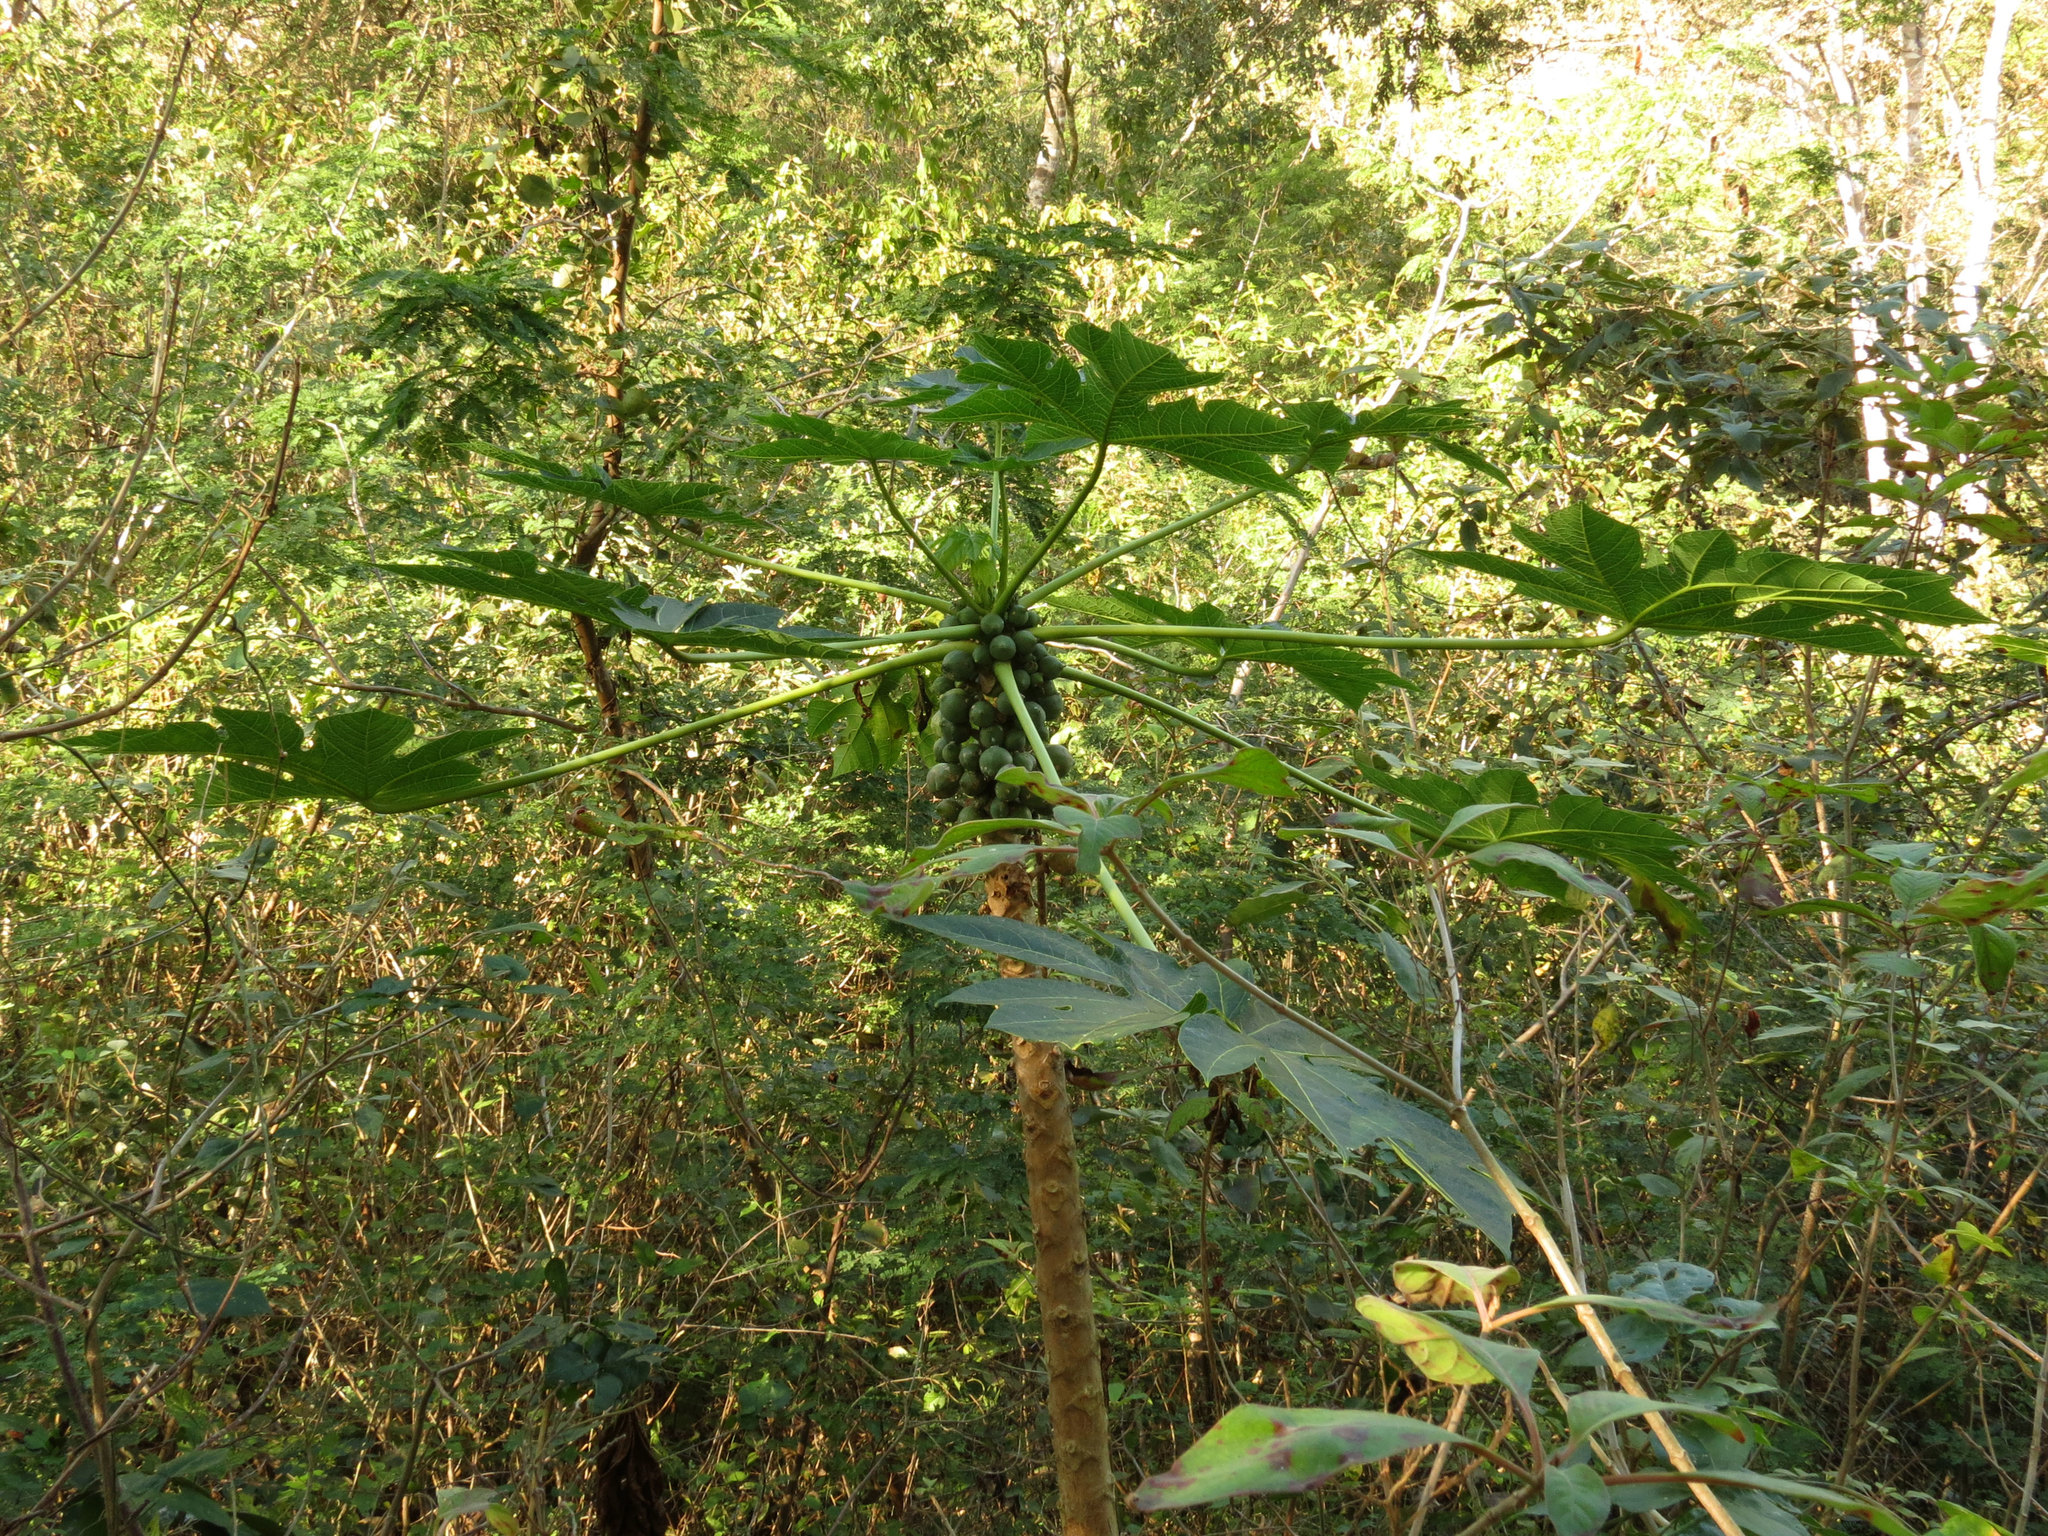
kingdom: Plantae
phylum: Tracheophyta
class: Magnoliopsida
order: Brassicales
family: Caricaceae
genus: Carica
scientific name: Carica papaya
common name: Papaya
